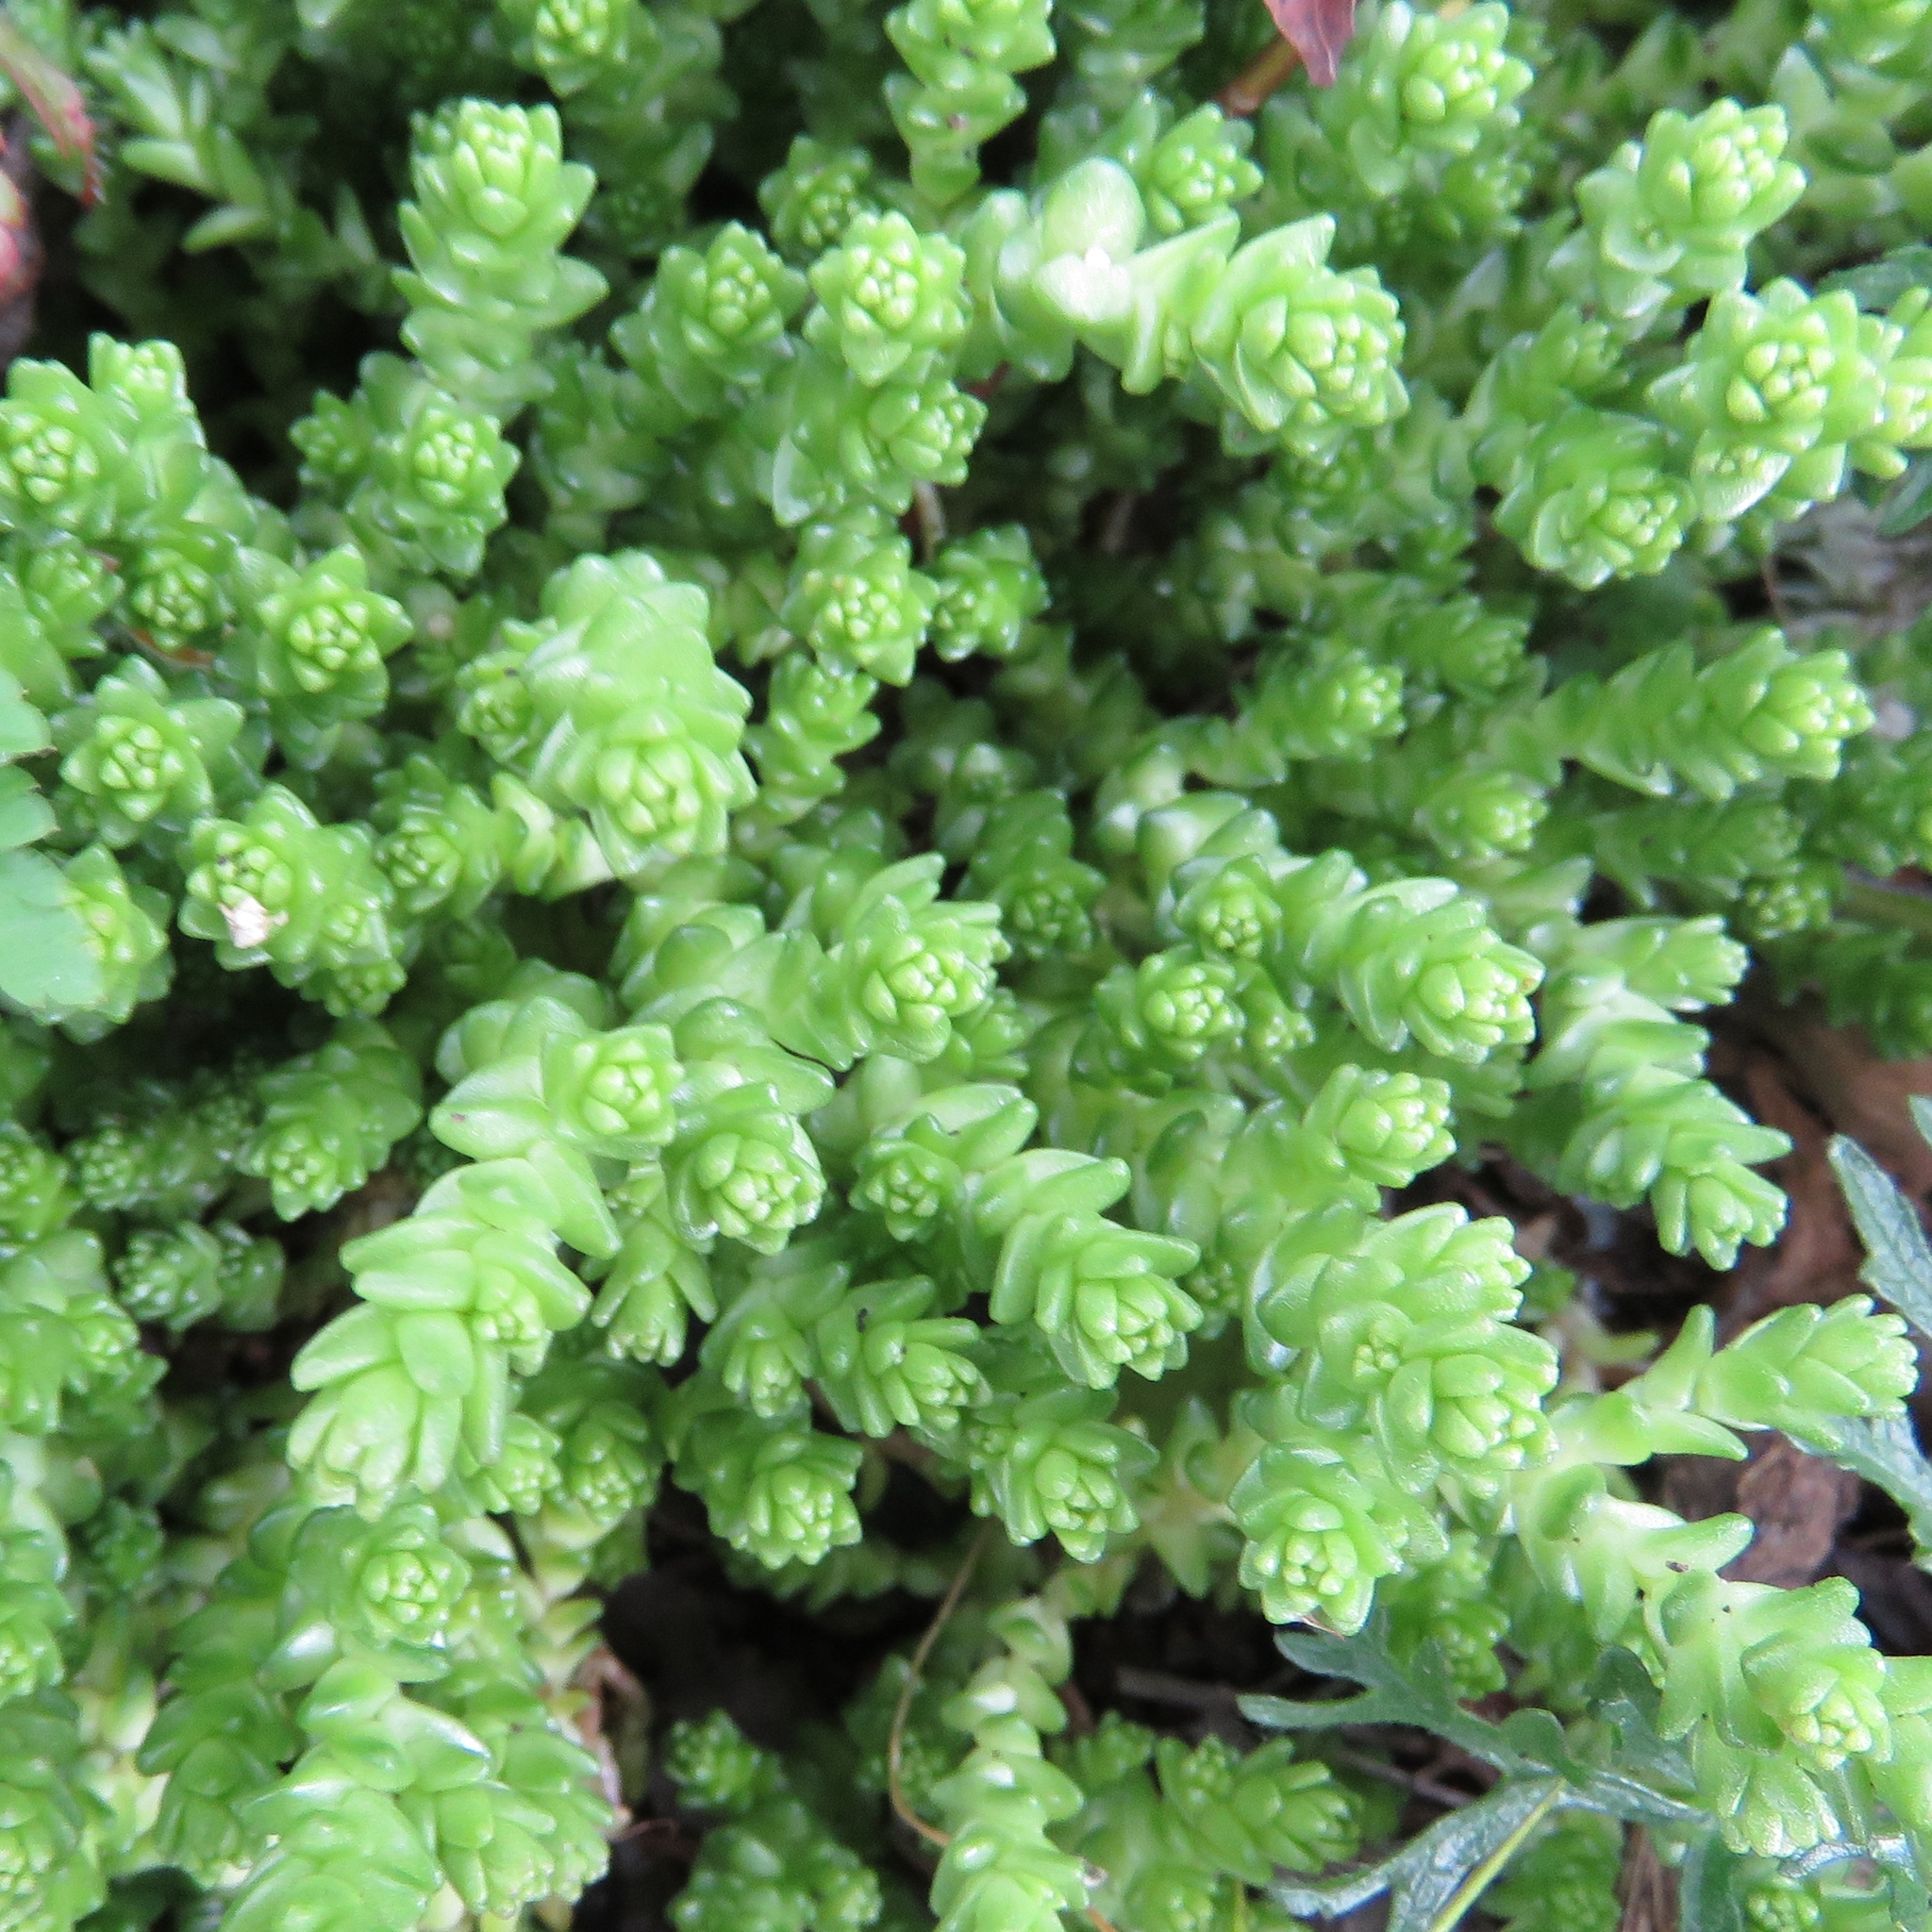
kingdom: Plantae
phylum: Tracheophyta
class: Magnoliopsida
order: Saxifragales
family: Crassulaceae
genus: Sedum
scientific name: Sedum acre
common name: Biting stonecrop
